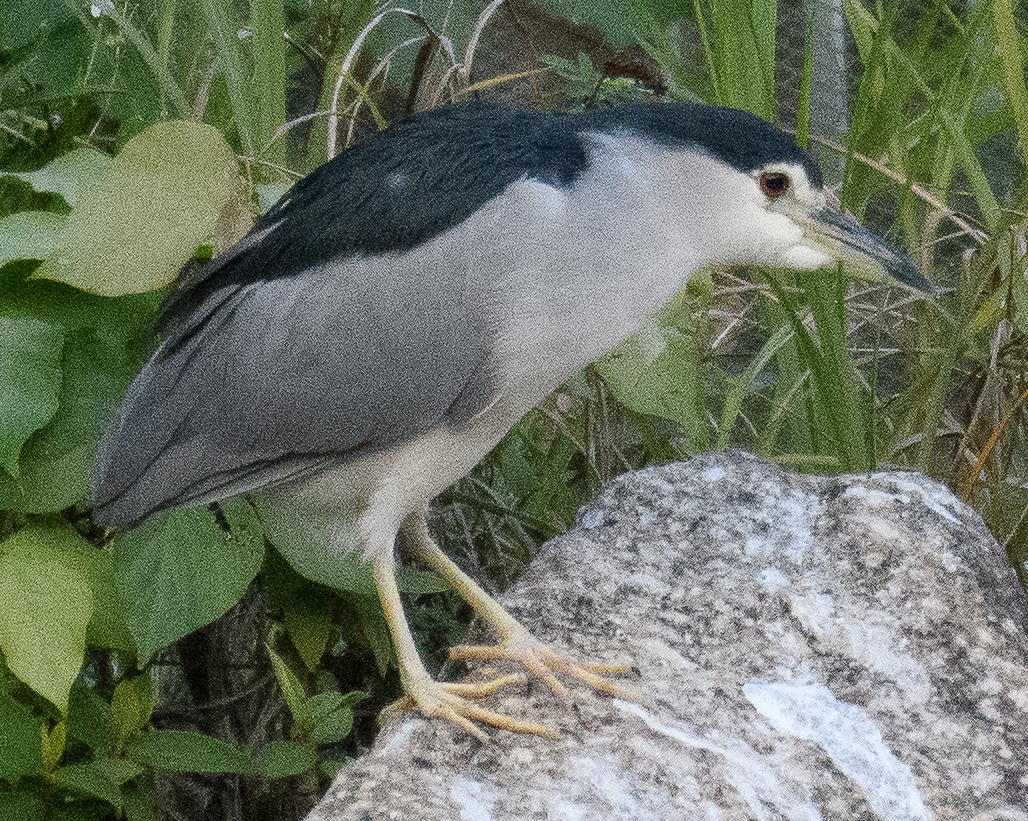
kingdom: Animalia
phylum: Chordata
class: Aves
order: Pelecaniformes
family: Ardeidae
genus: Nycticorax
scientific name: Nycticorax nycticorax
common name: Black-crowned night heron
